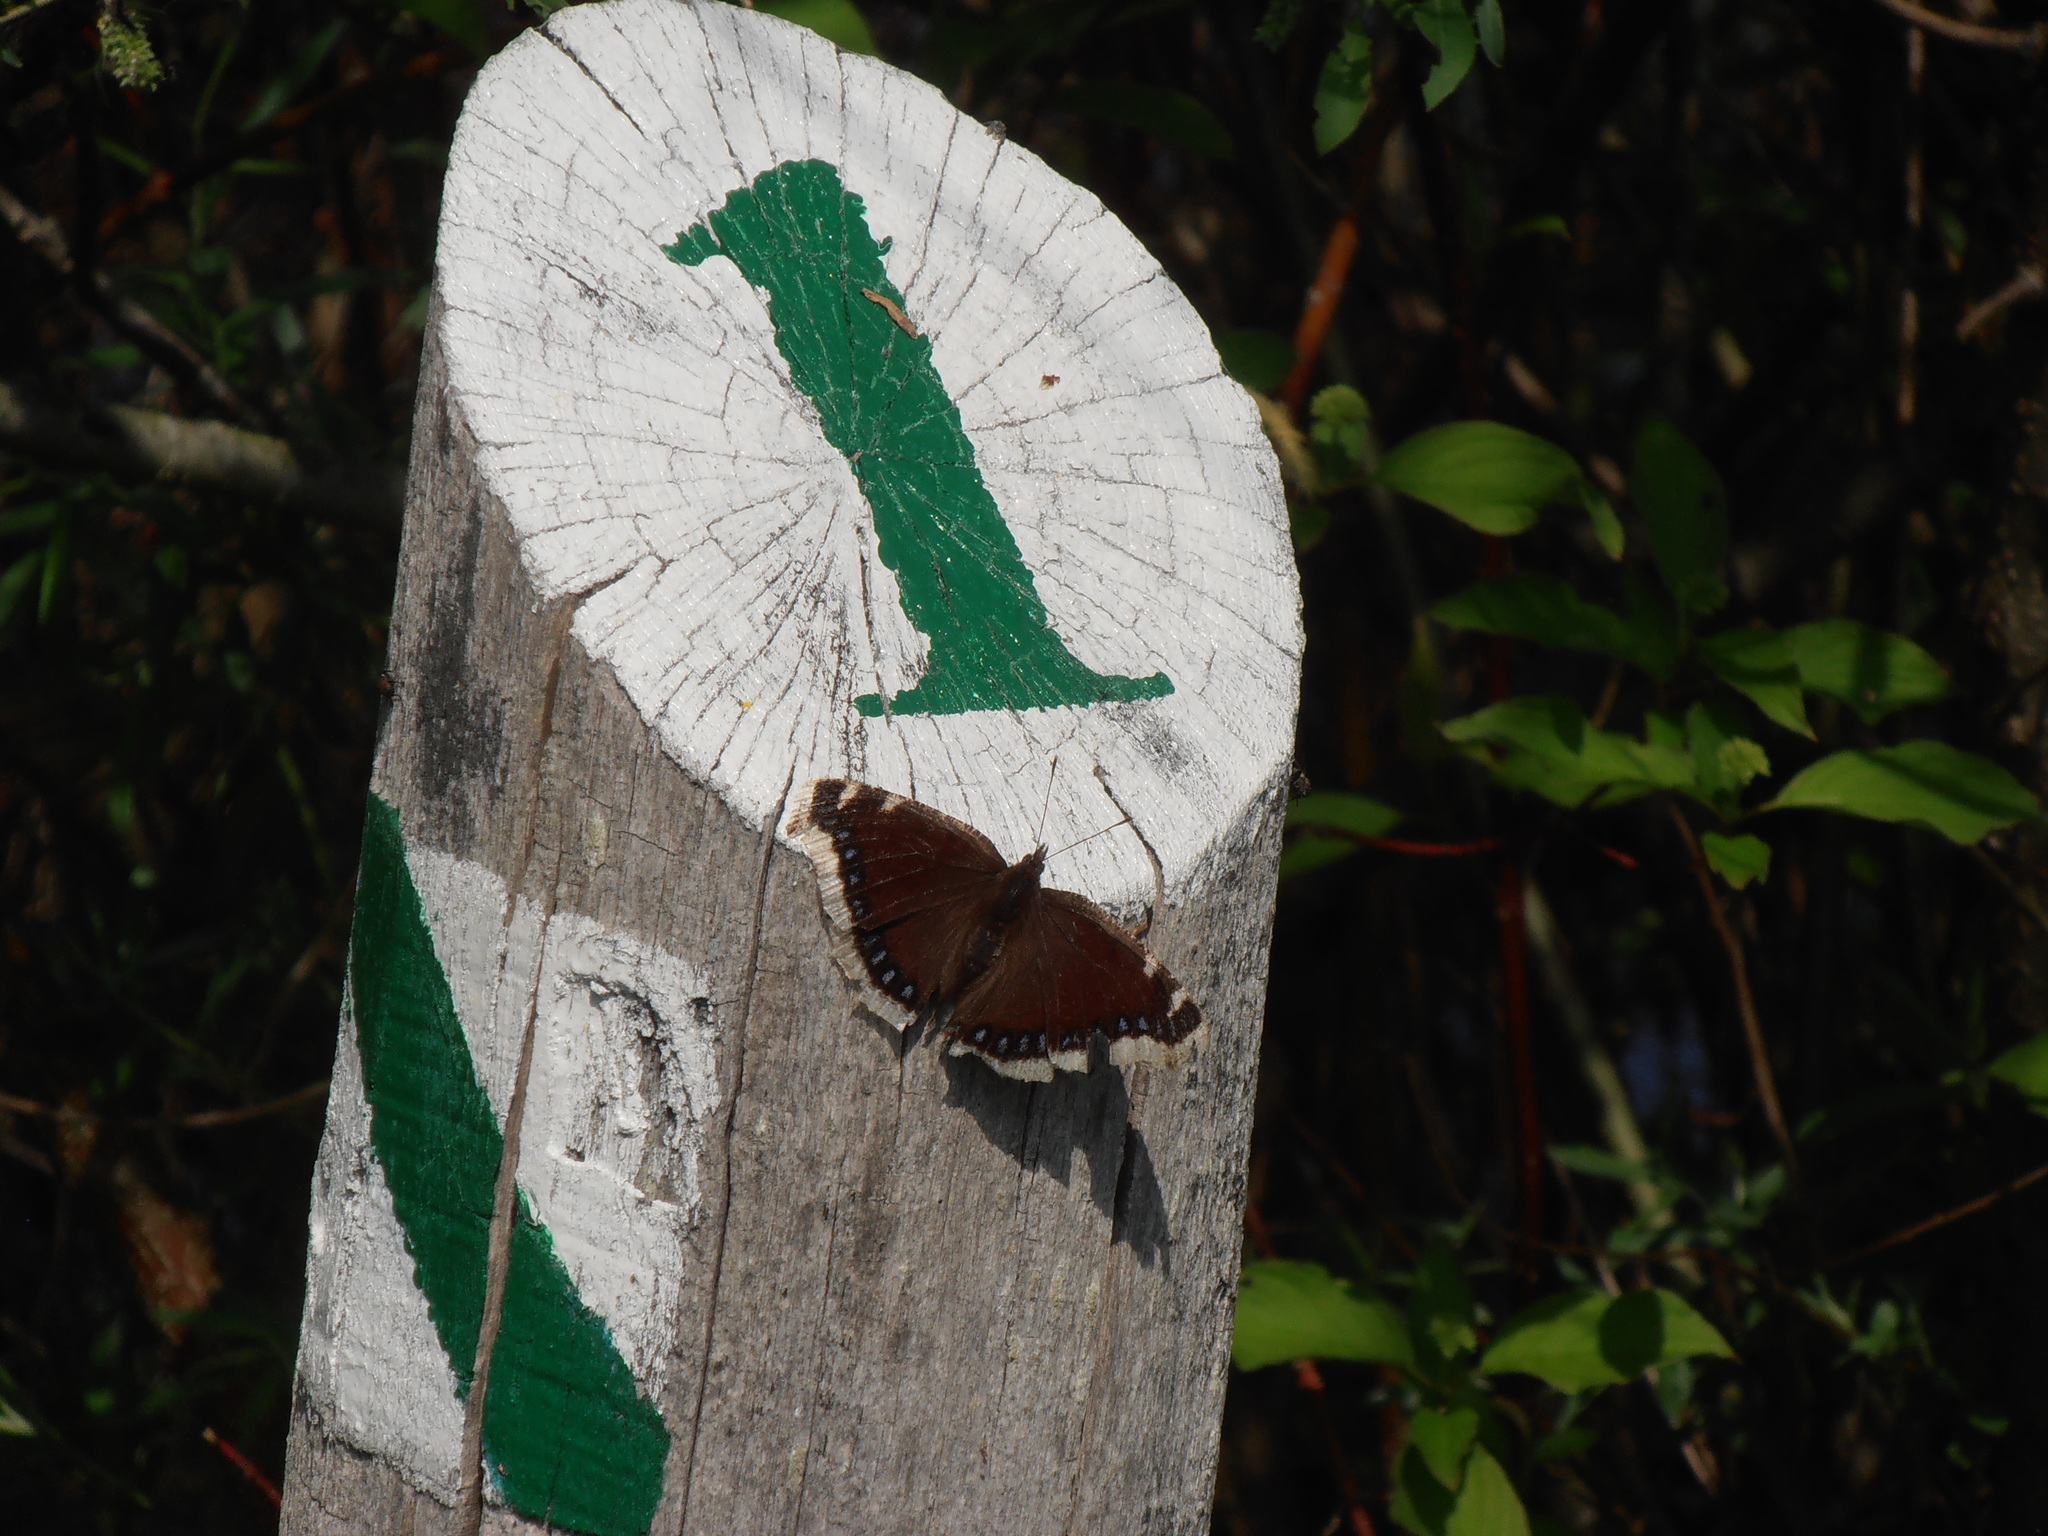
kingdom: Animalia
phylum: Arthropoda
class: Insecta
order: Lepidoptera
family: Nymphalidae
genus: Nymphalis
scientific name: Nymphalis antiopa
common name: Camberwell beauty
